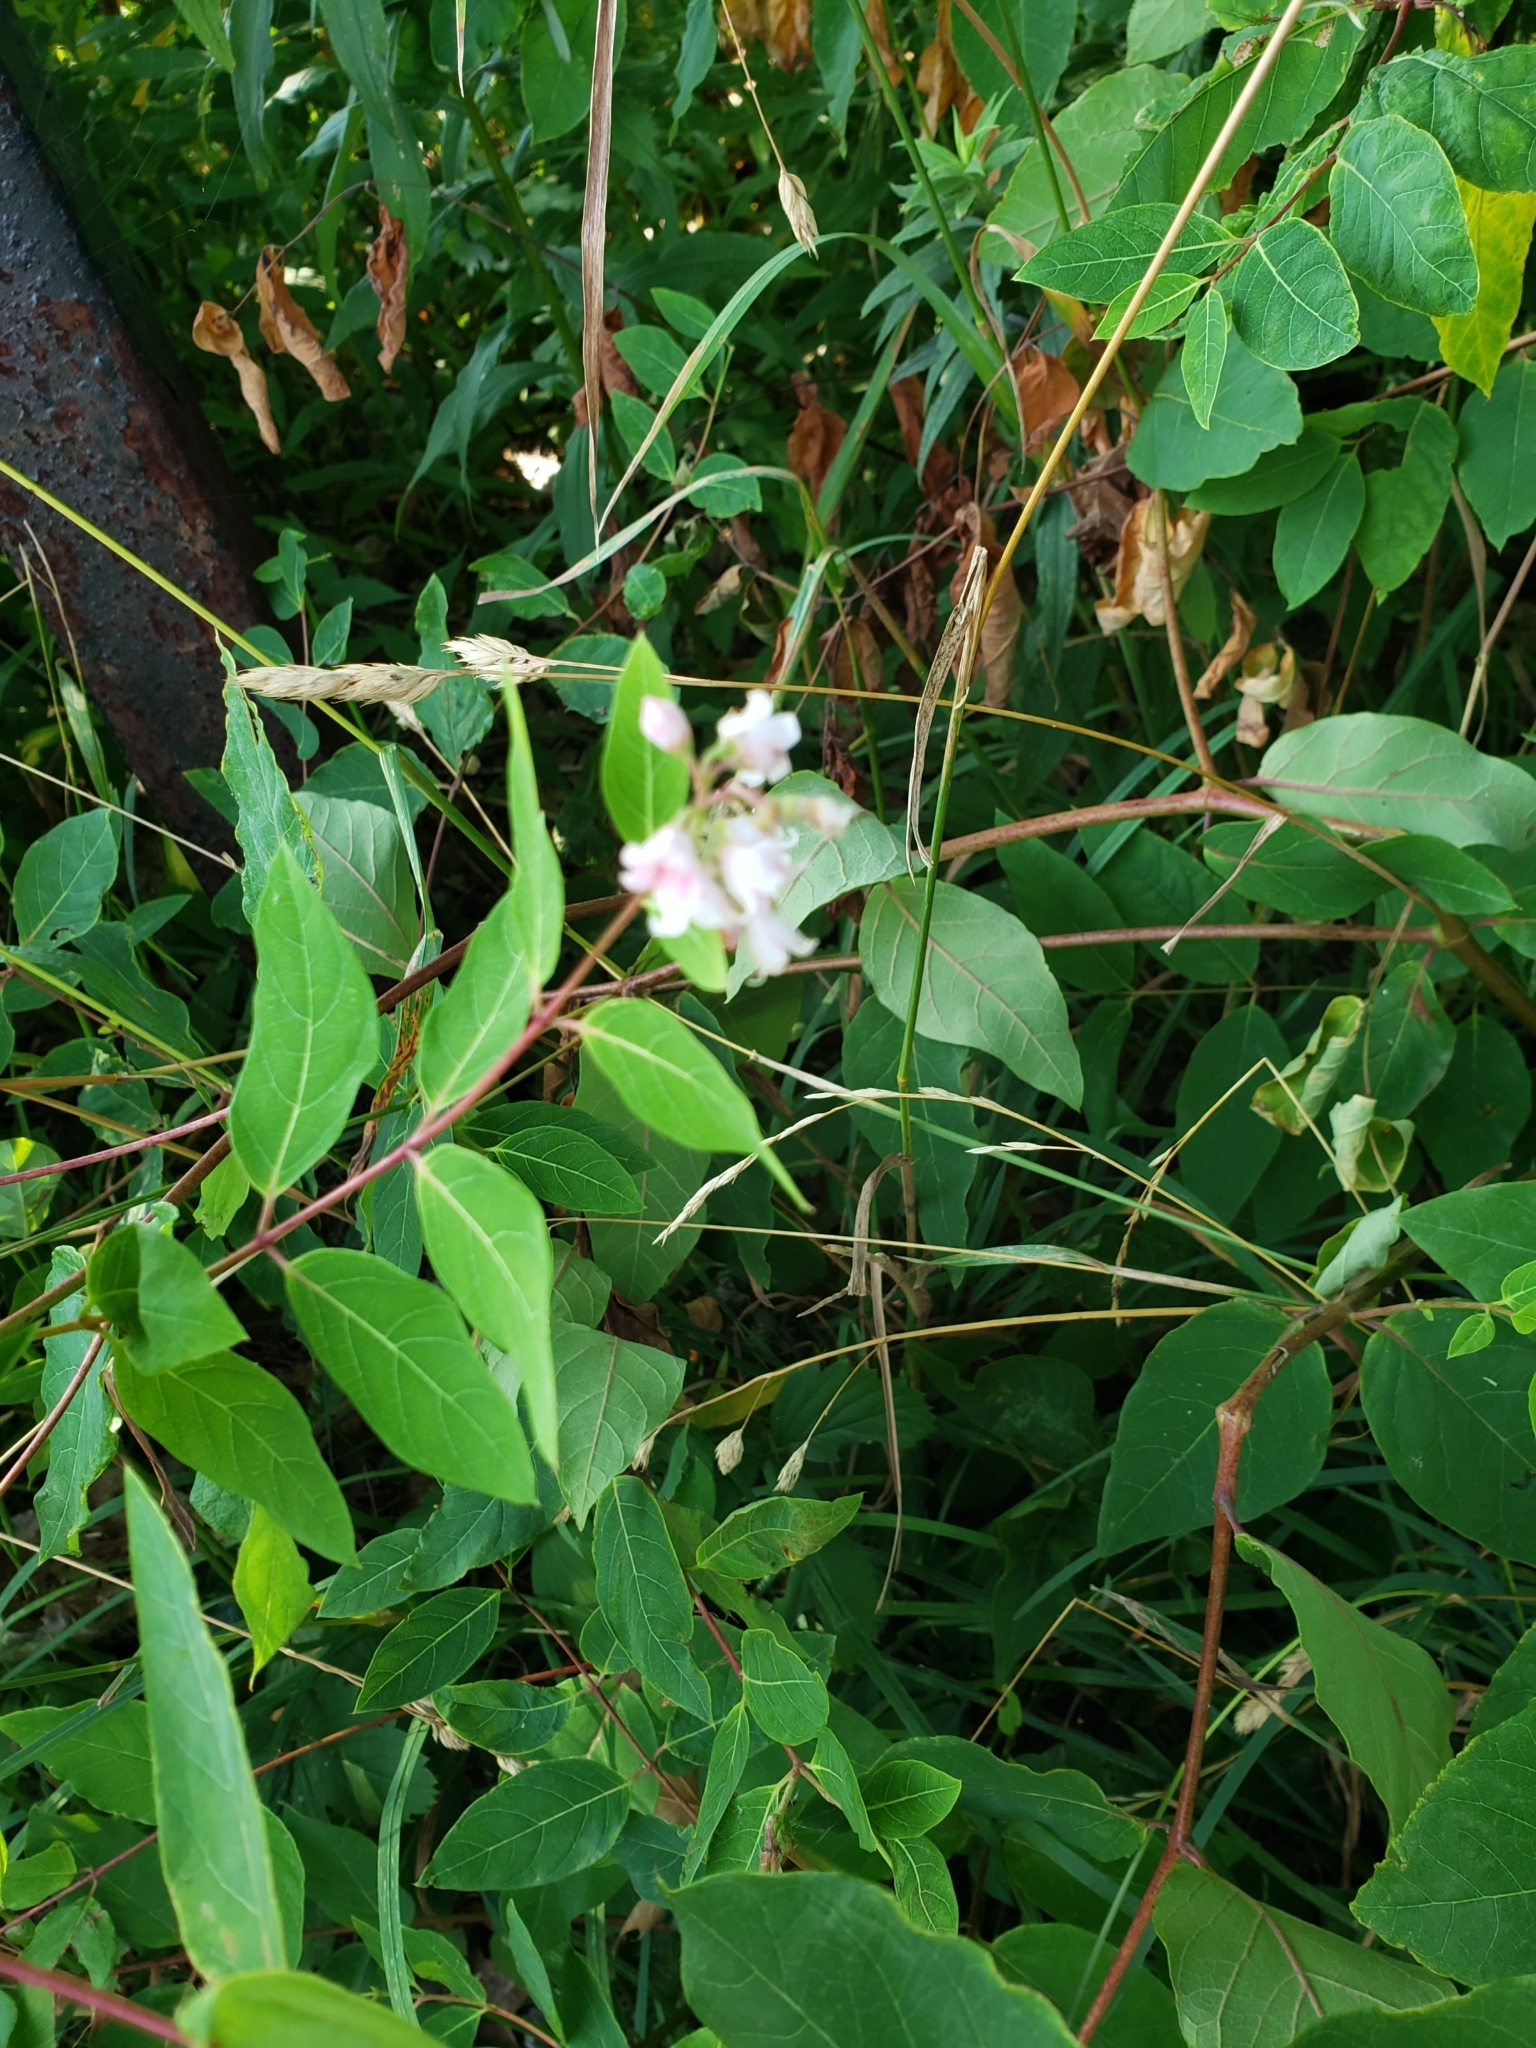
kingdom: Plantae
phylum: Tracheophyta
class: Magnoliopsida
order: Gentianales
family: Apocynaceae
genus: Apocynum
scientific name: Apocynum androsaemifolium
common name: Spreading dogbane
